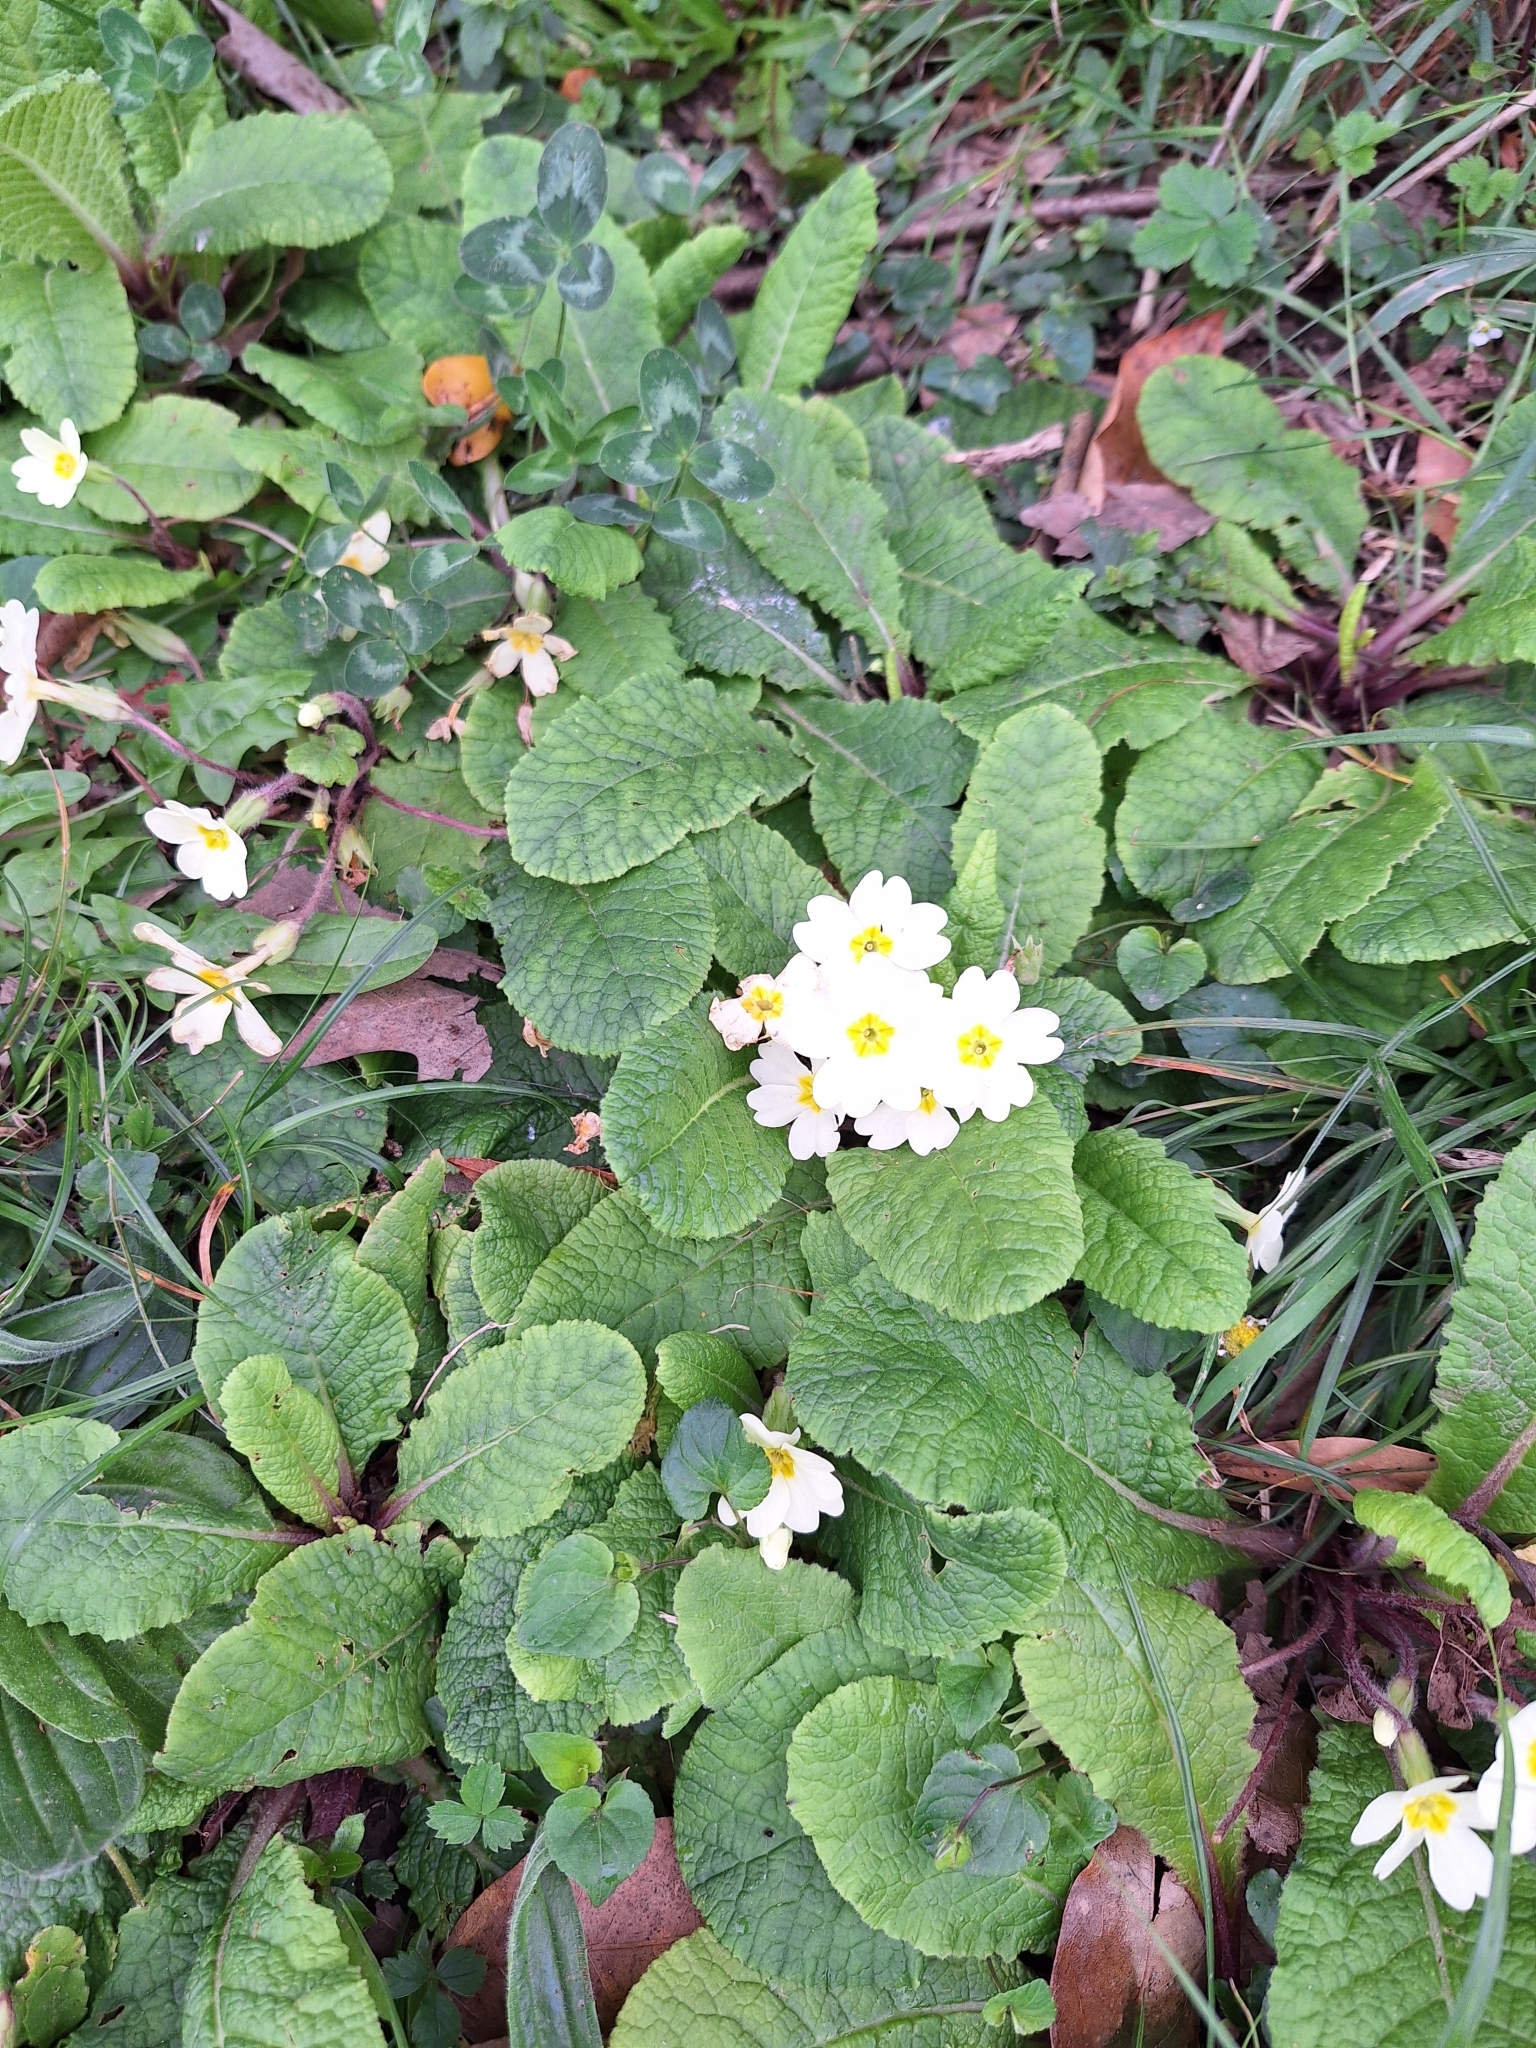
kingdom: Plantae
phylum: Tracheophyta
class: Magnoliopsida
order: Ericales
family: Primulaceae
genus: Primula
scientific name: Primula vulgaris
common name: Primrose
